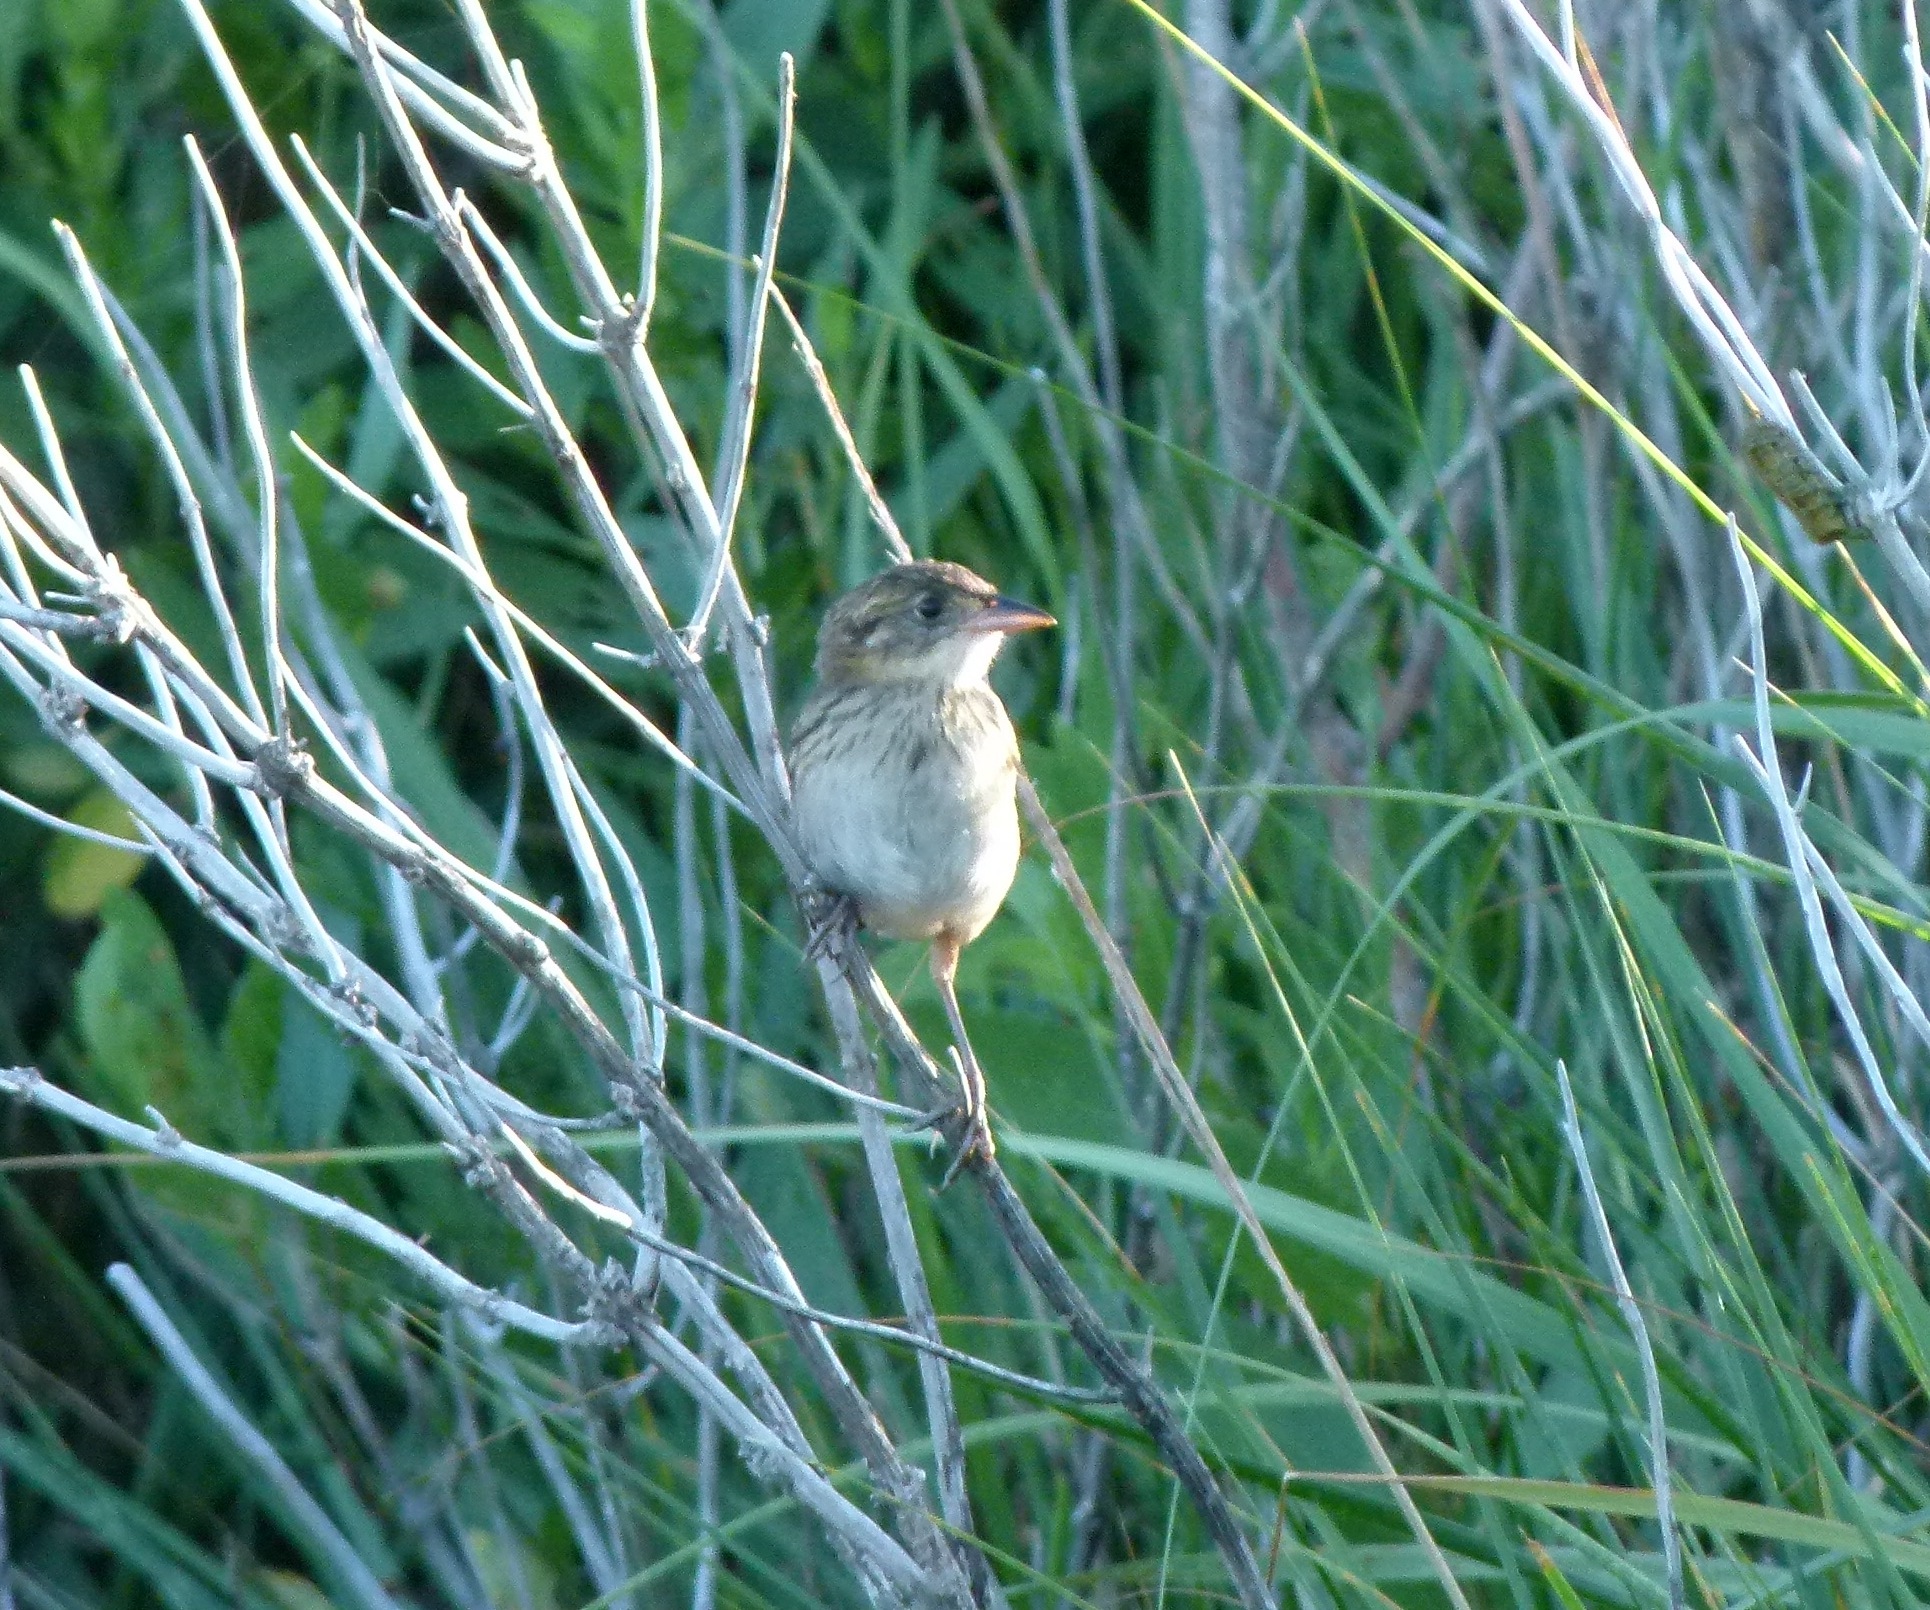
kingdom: Animalia
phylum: Chordata
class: Aves
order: Passeriformes
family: Passerellidae
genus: Ammospiza
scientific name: Ammospiza maritima
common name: Seaside sparrow
